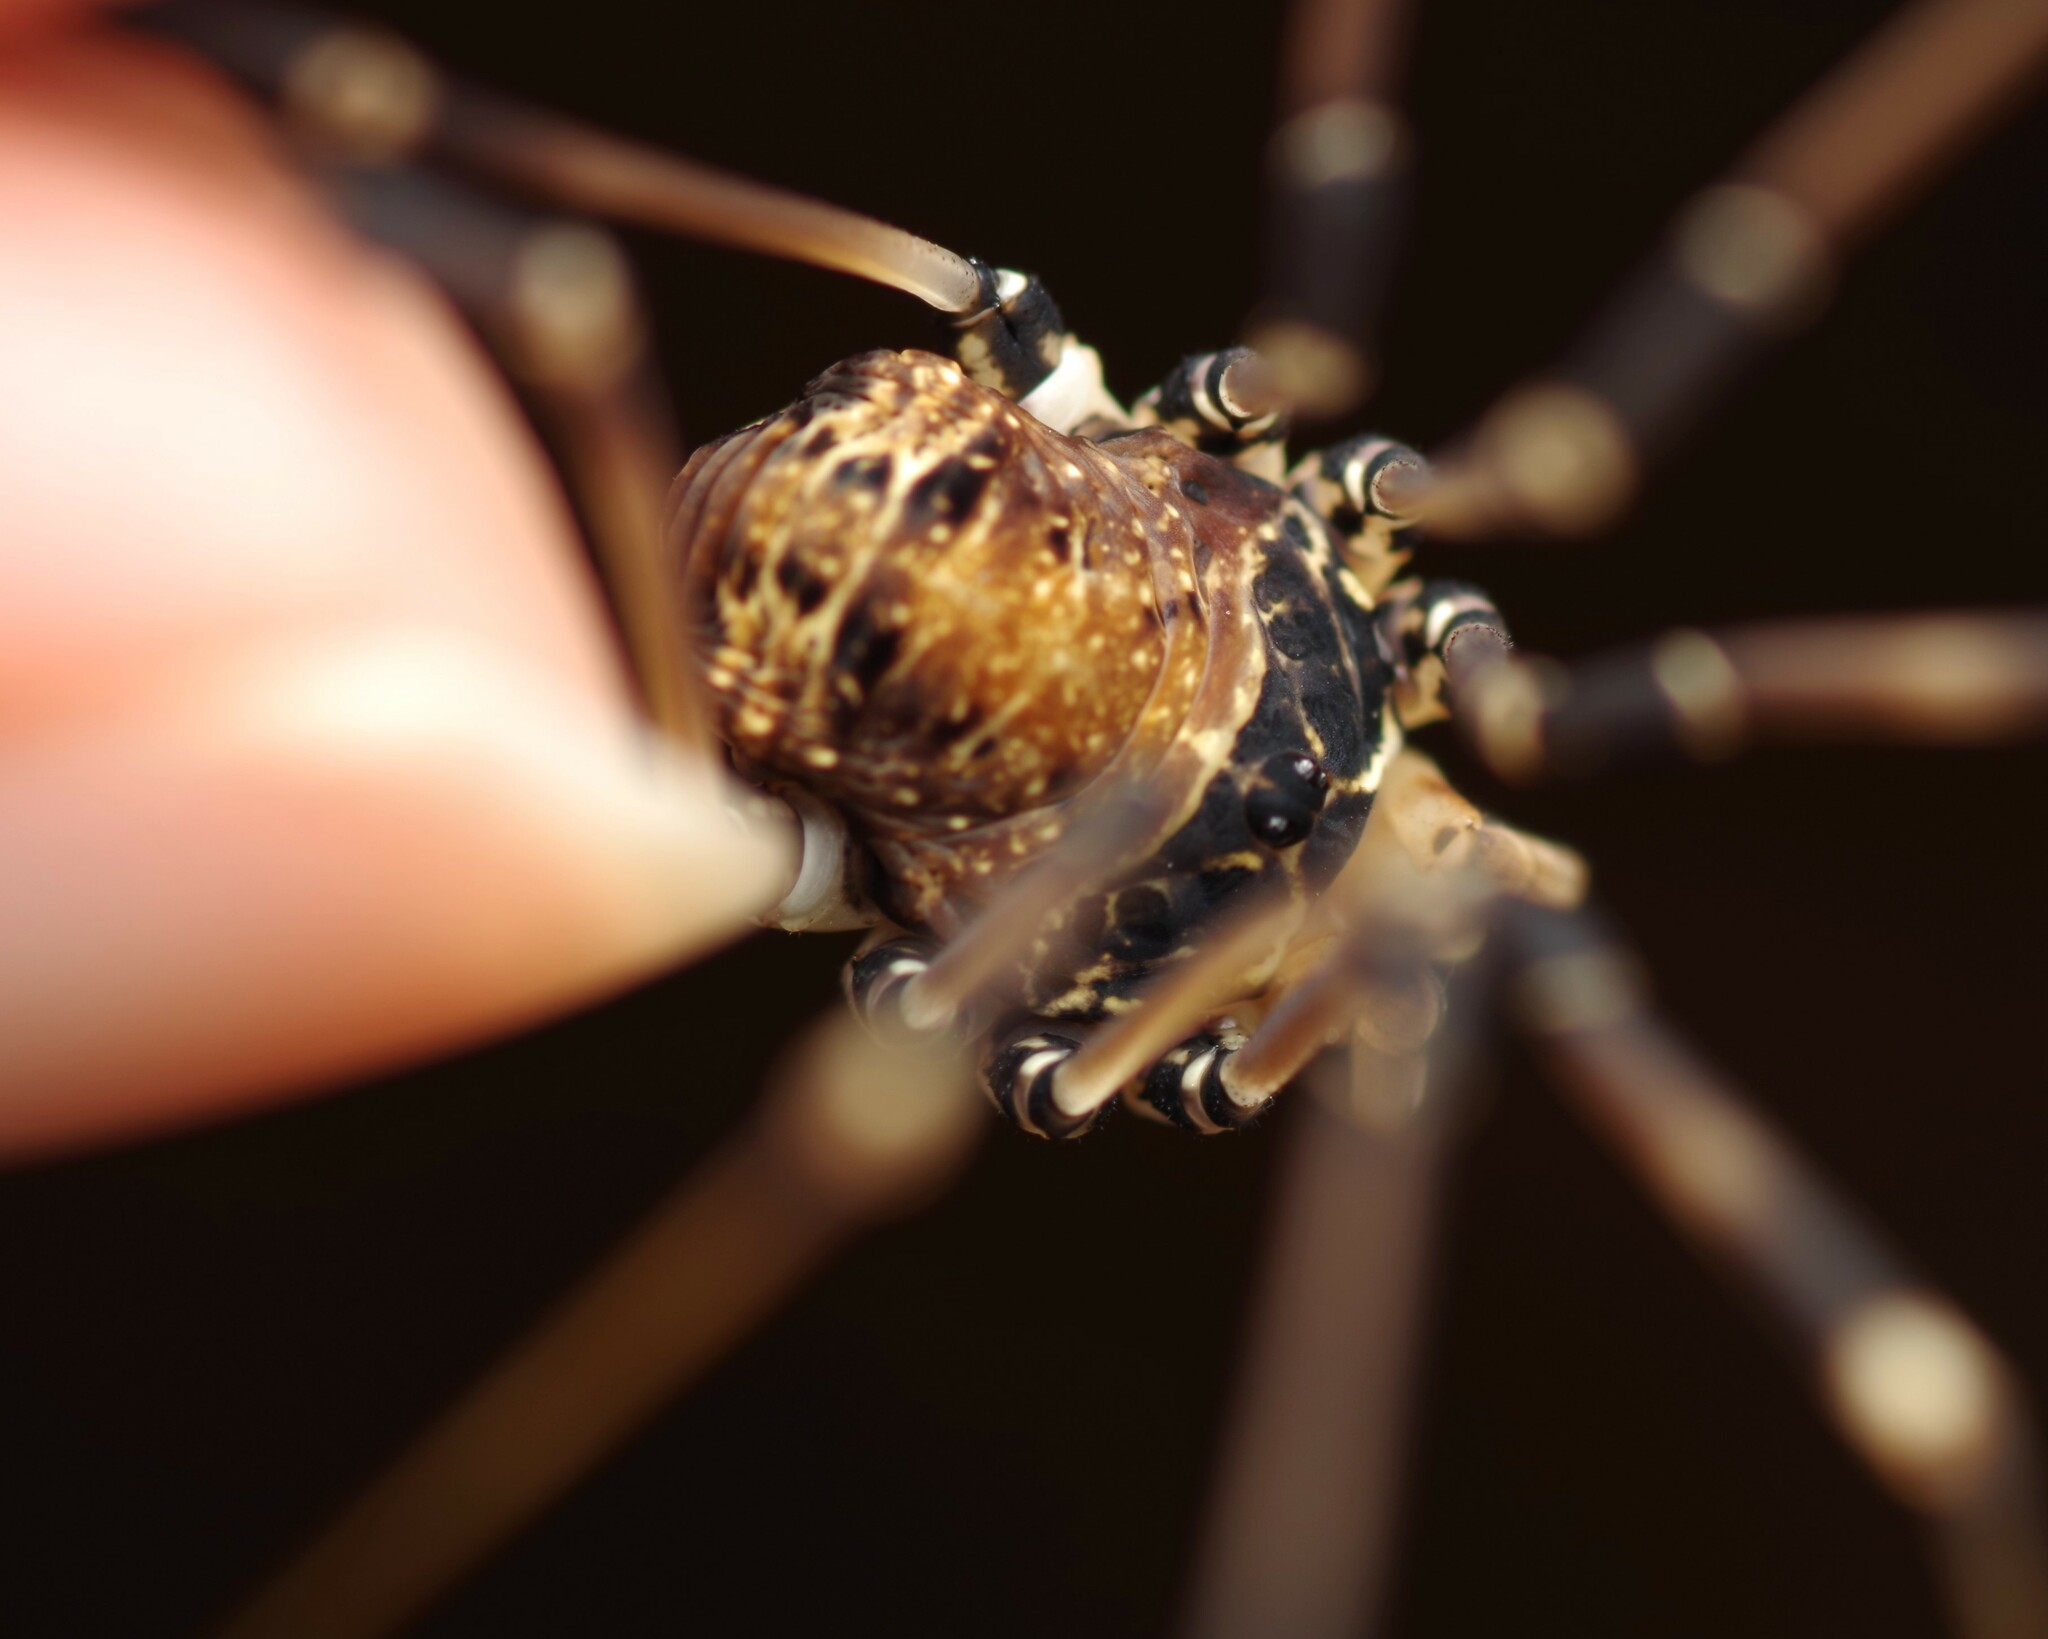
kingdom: Animalia
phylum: Arthropoda
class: Arachnida
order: Opiliones
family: Sclerosomatidae
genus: Gyas
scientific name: Gyas titanus
